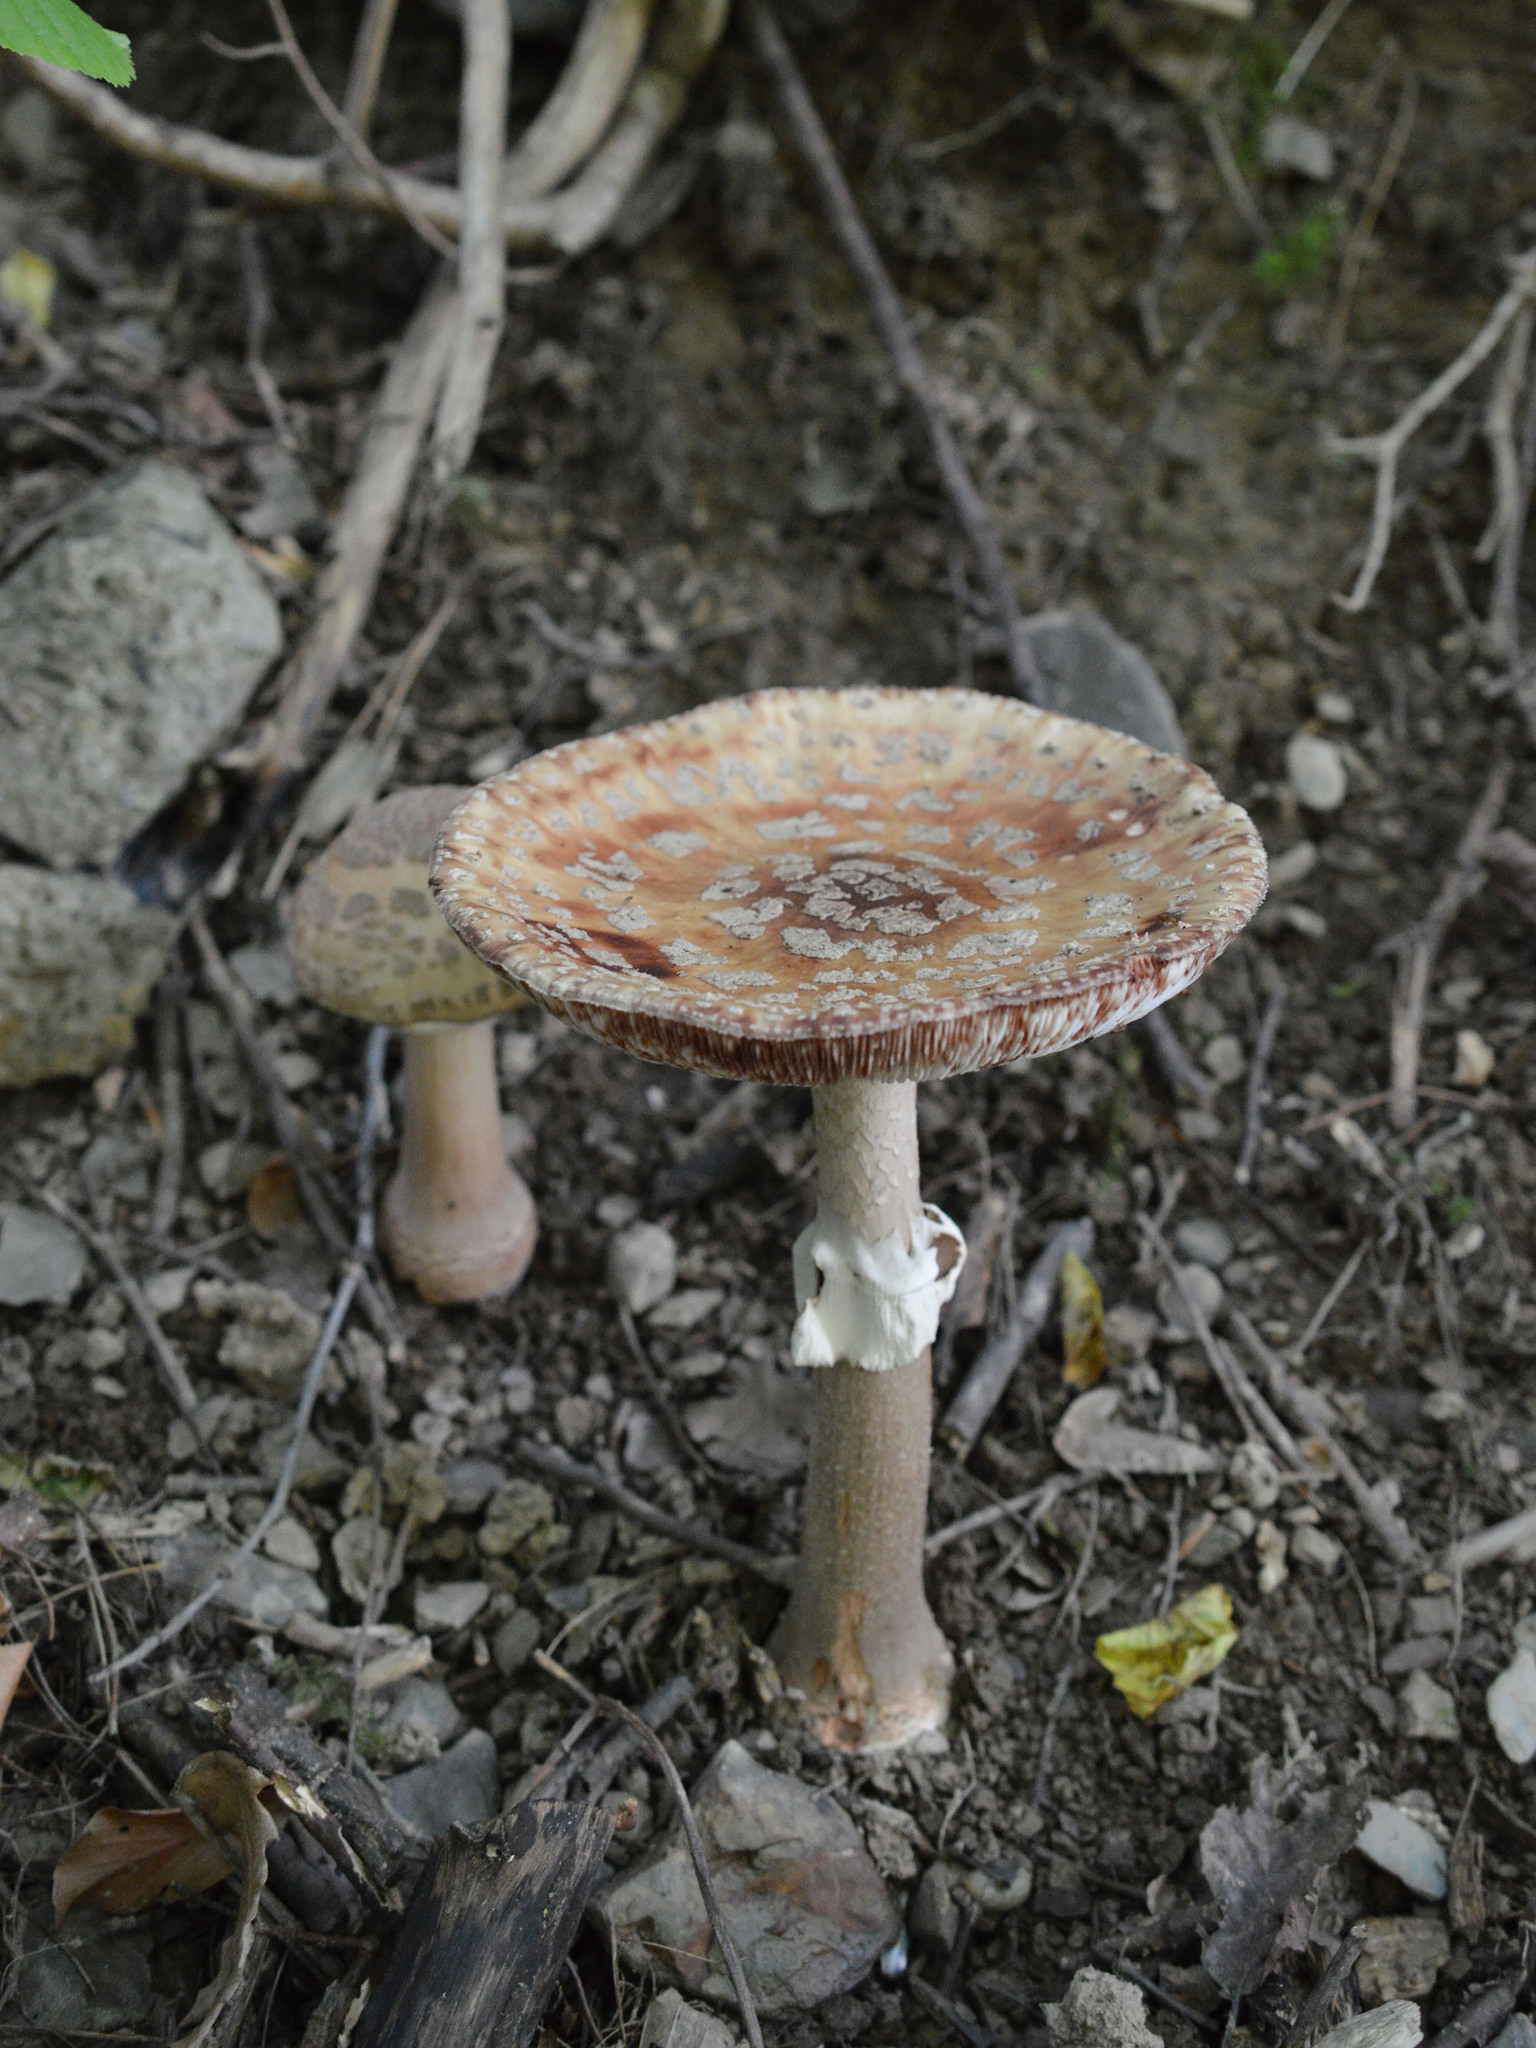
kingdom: Fungi
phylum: Basidiomycota
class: Agaricomycetes
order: Agaricales
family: Amanitaceae
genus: Amanita
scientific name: Amanita rubescens
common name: Blusher
